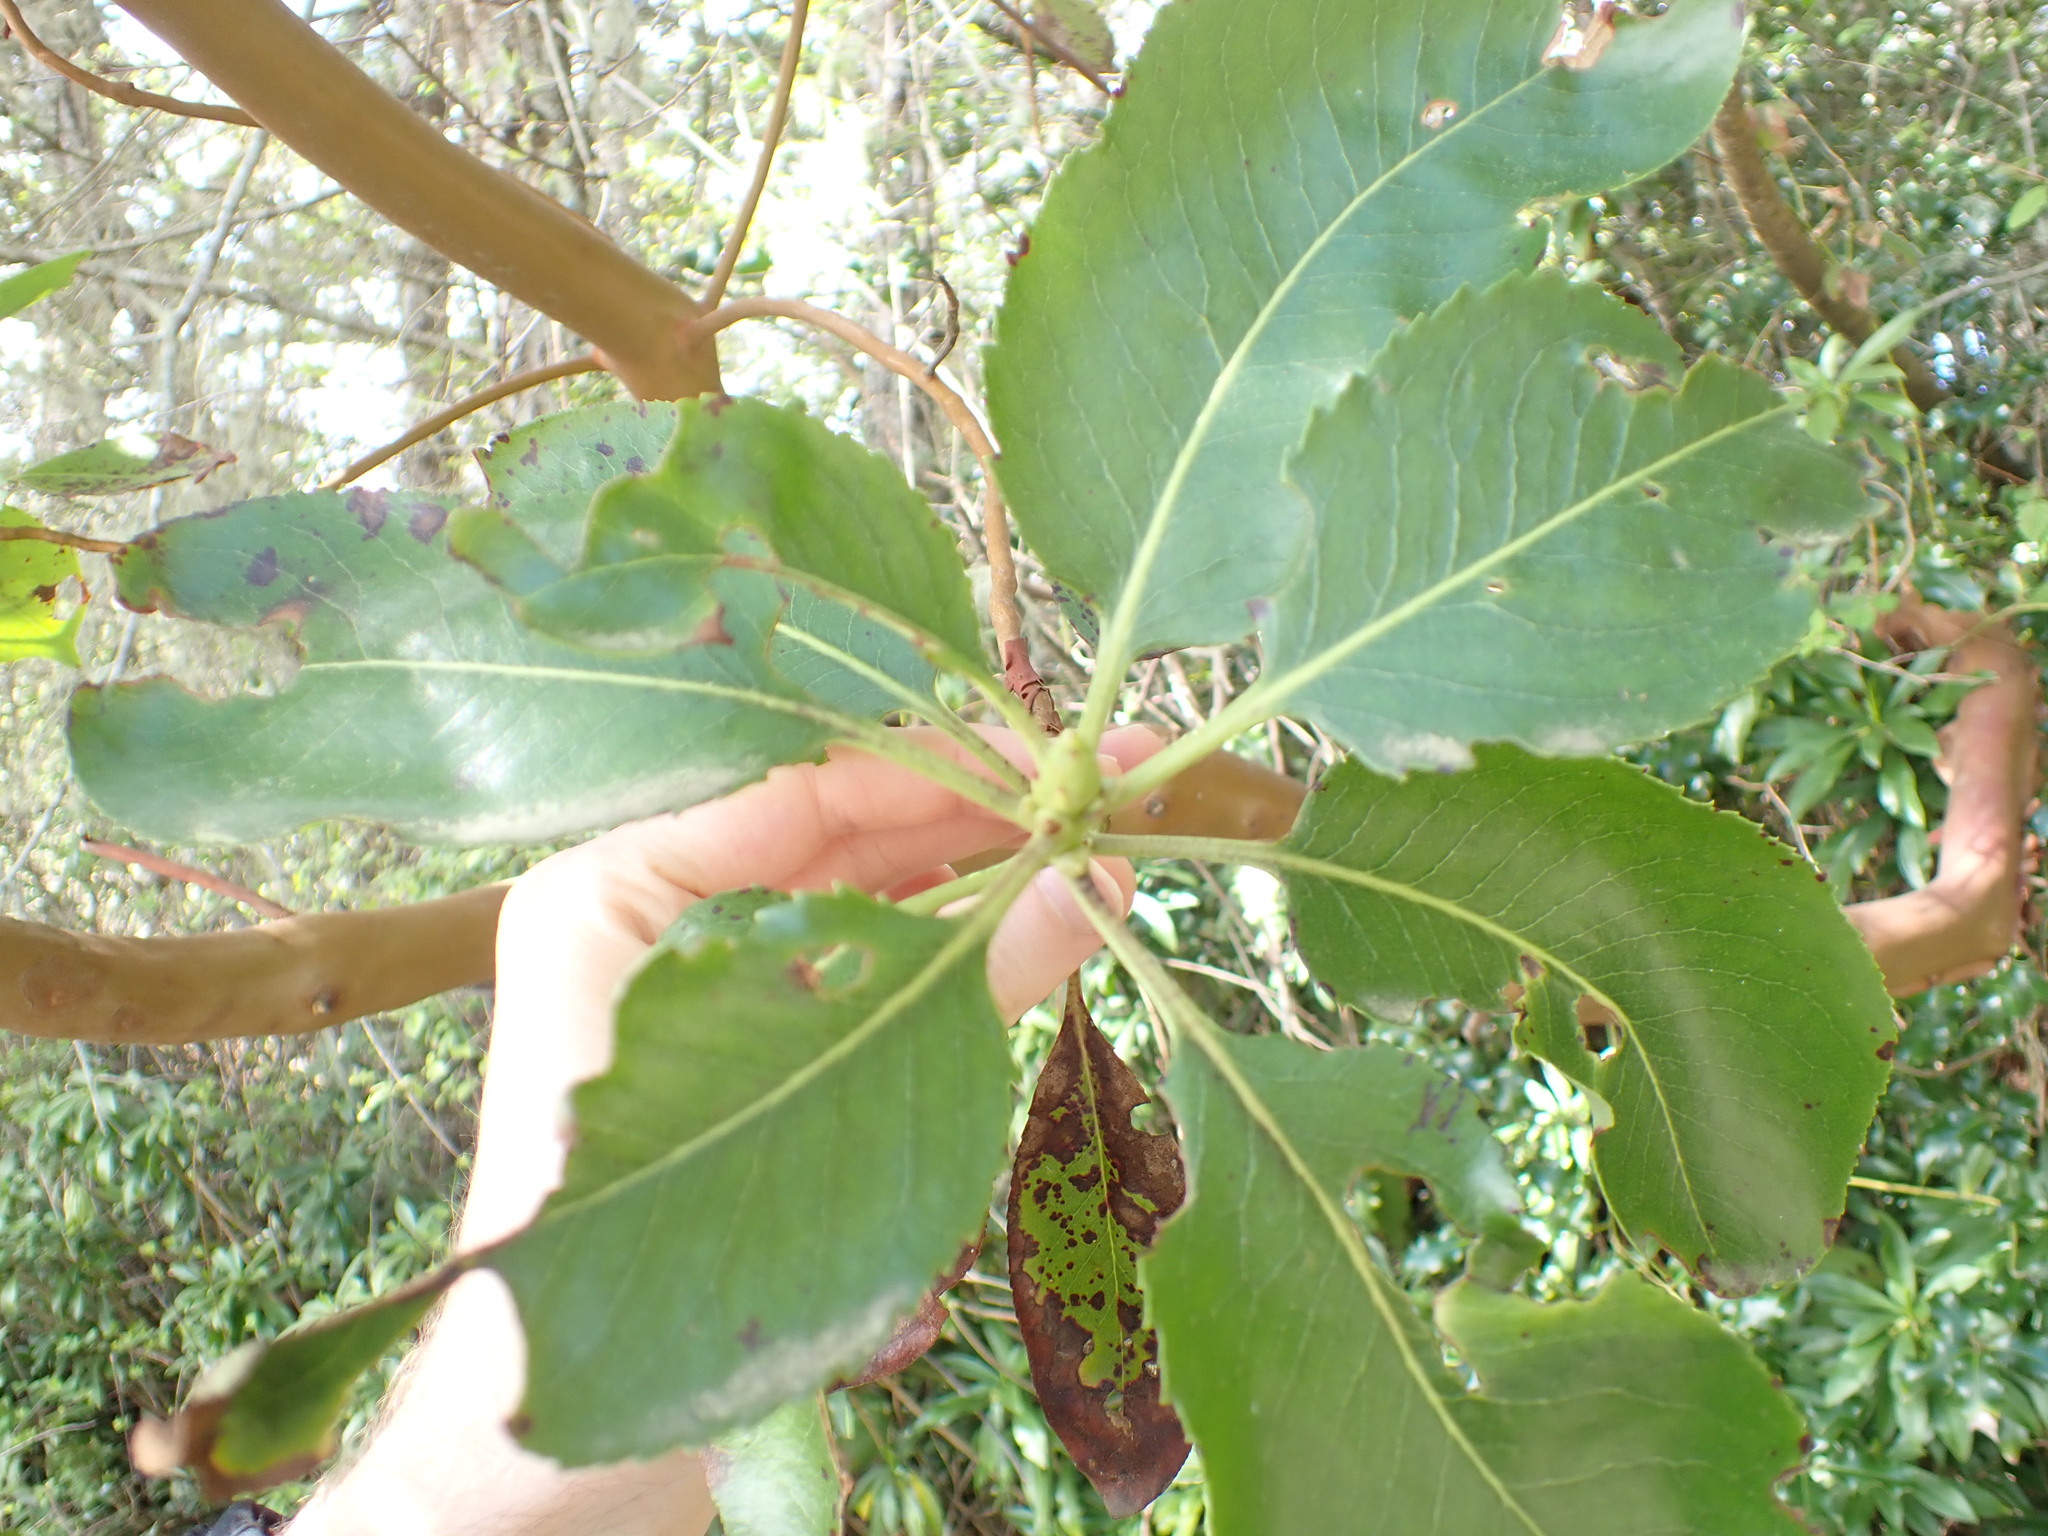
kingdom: Plantae
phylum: Tracheophyta
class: Magnoliopsida
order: Ericales
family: Ericaceae
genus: Arbutus
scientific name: Arbutus menziesii
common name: Pacific madrone
